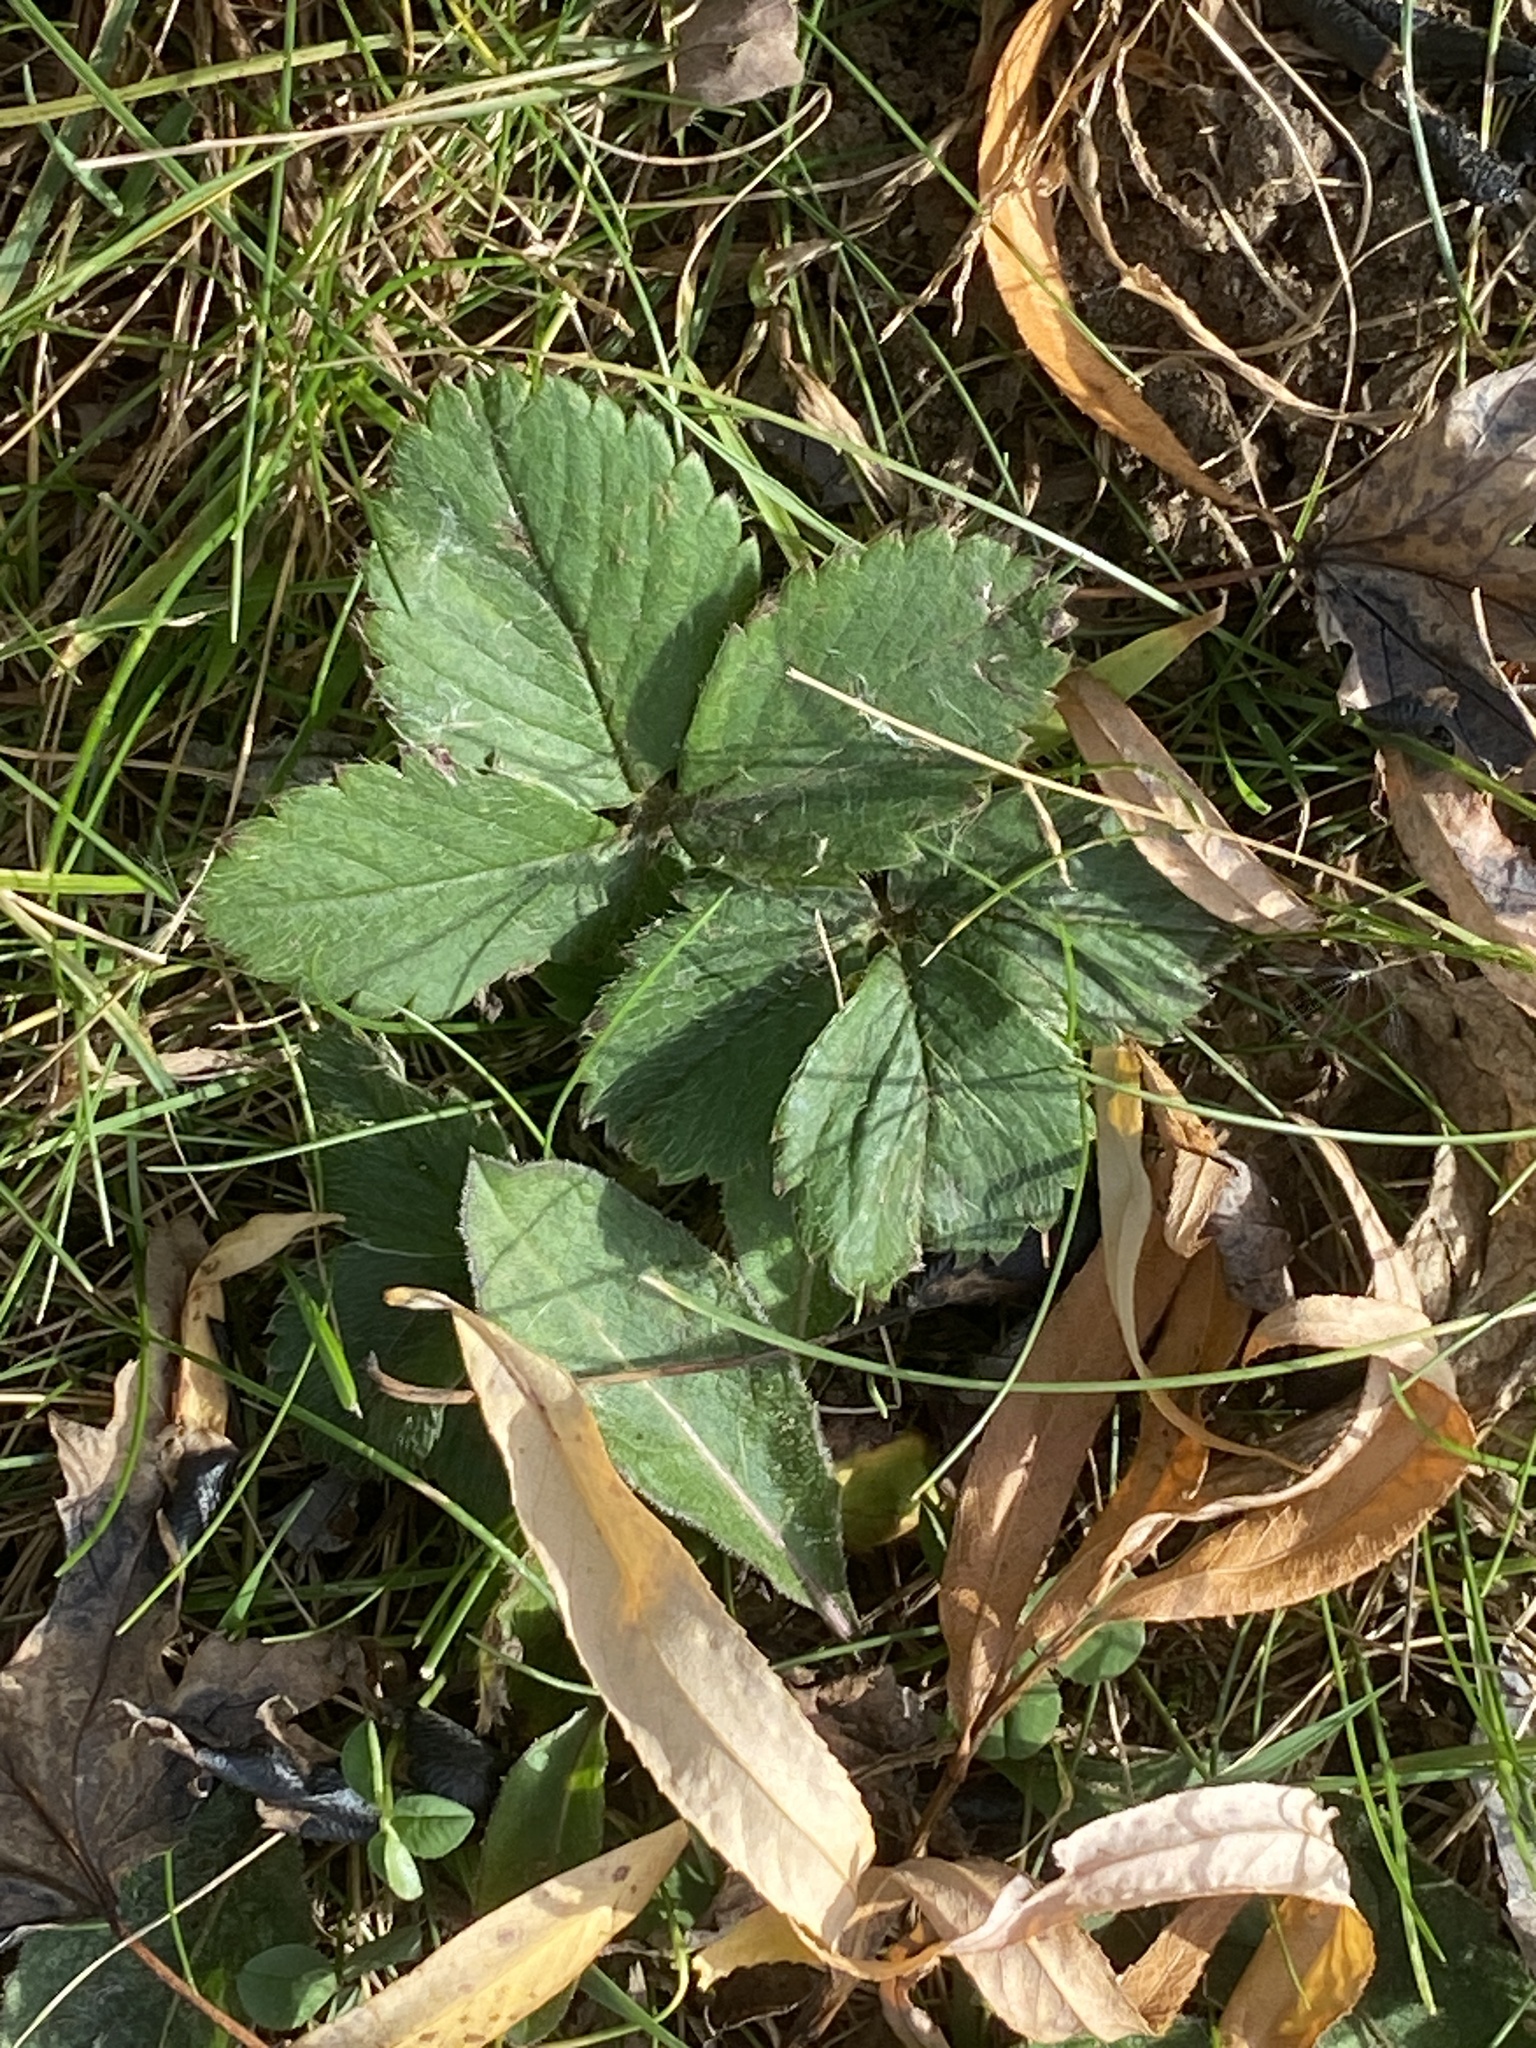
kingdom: Plantae
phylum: Tracheophyta
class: Magnoliopsida
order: Rosales
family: Rosaceae
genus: Fragaria
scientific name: Fragaria virginiana
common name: Thickleaved wild strawberry
